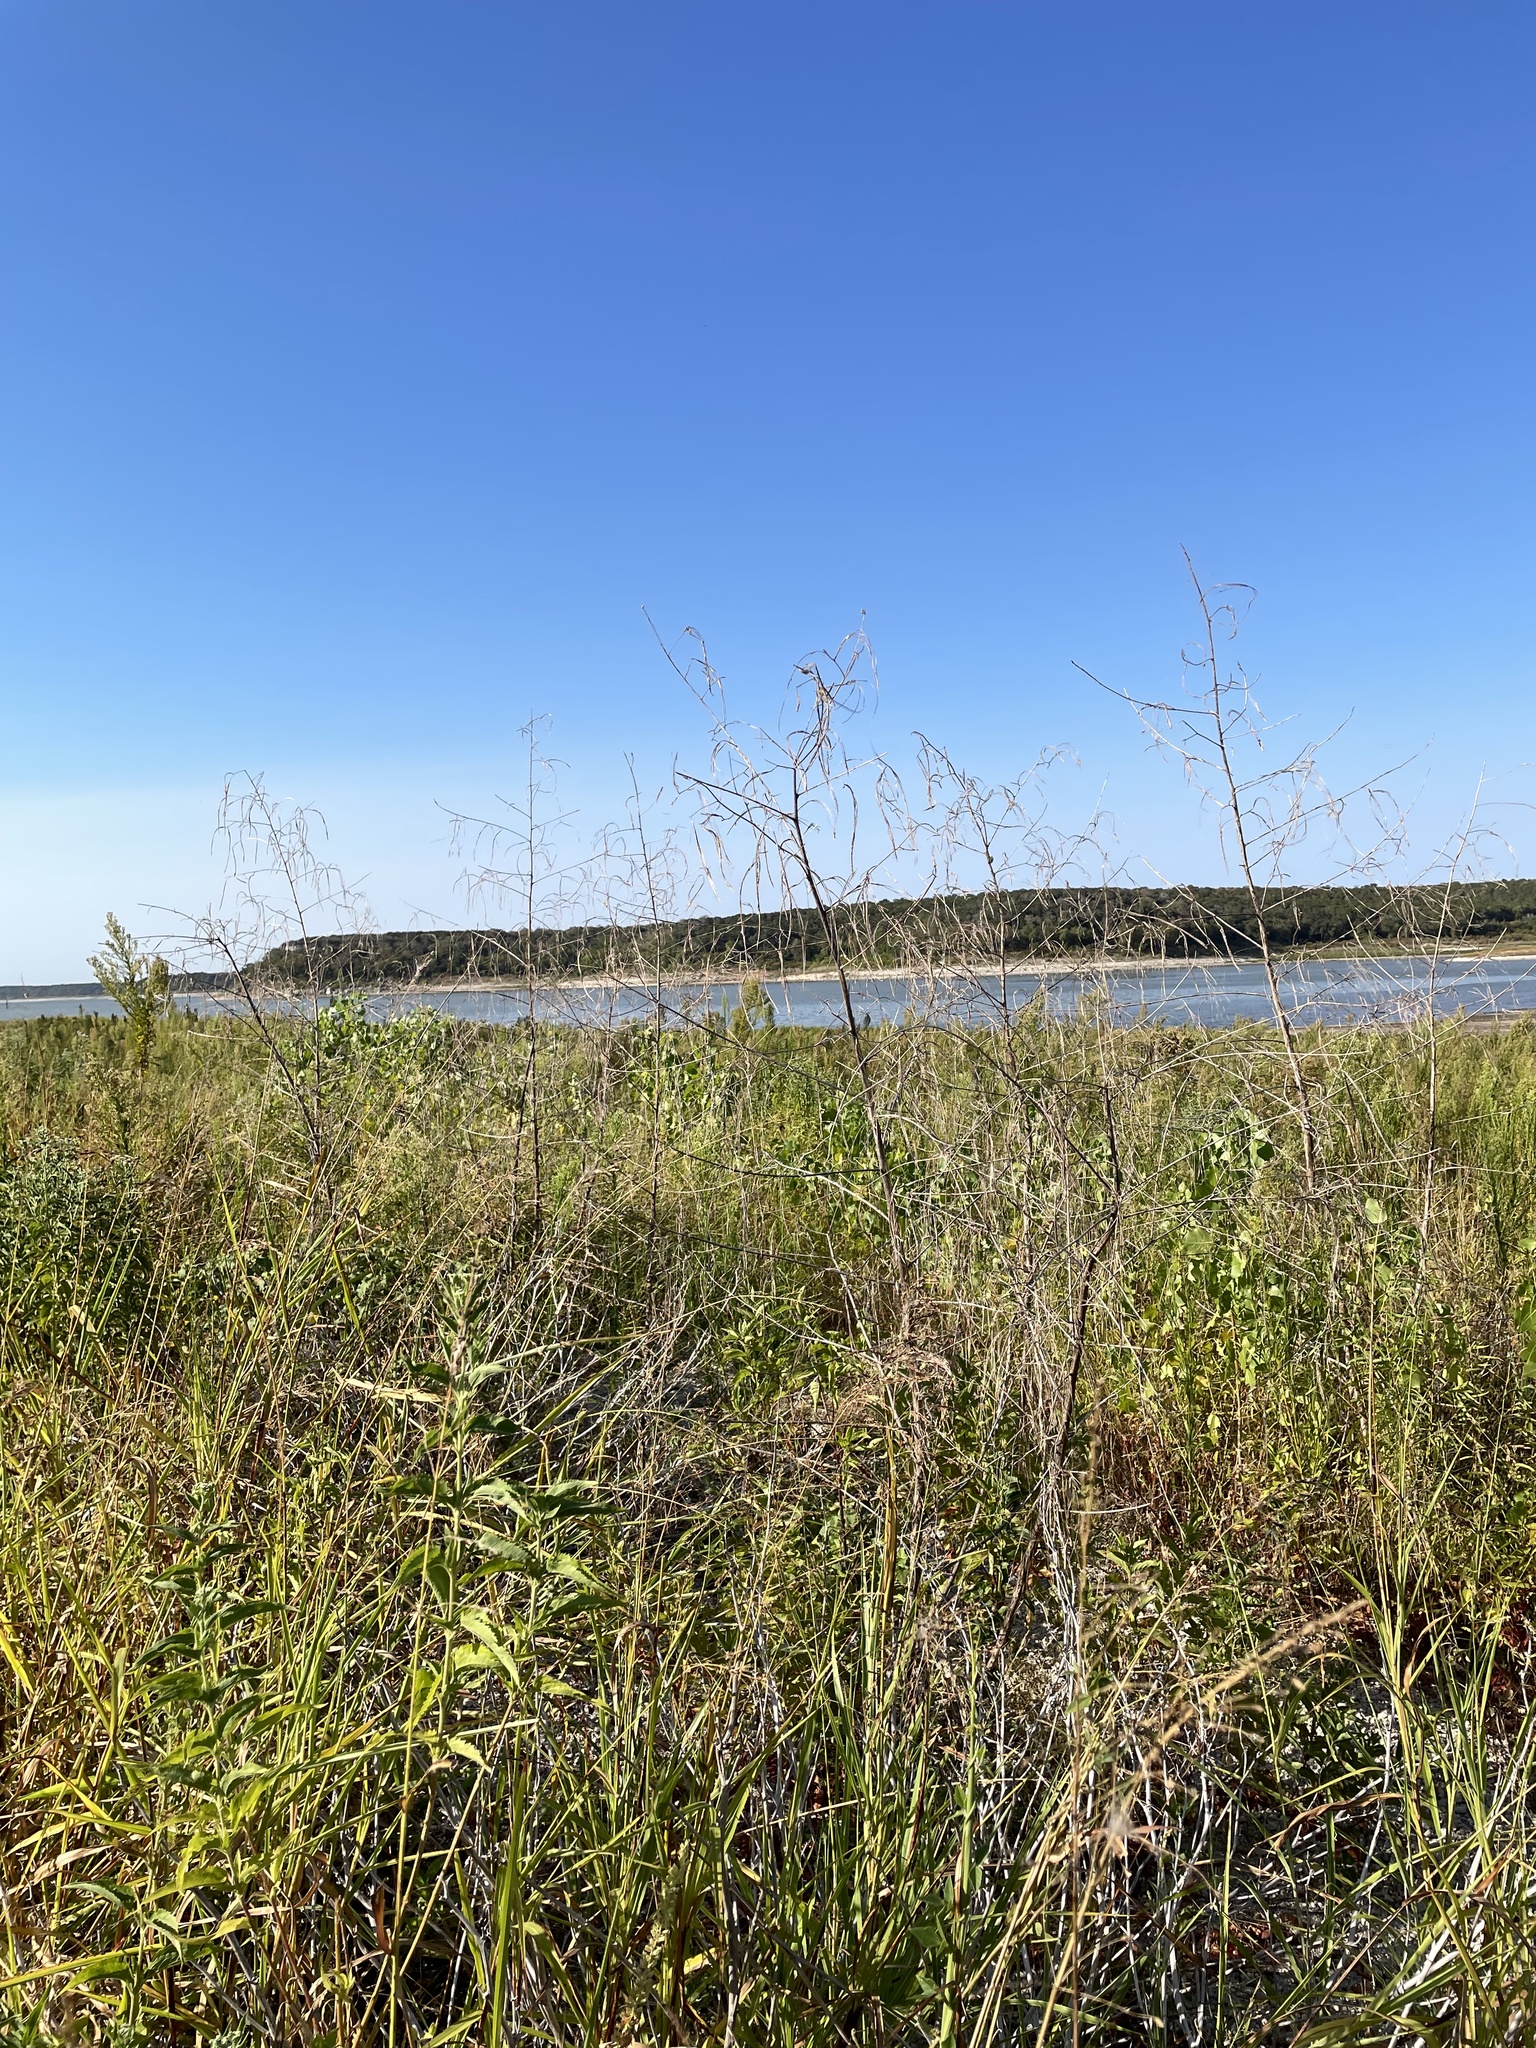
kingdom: Plantae
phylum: Tracheophyta
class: Magnoliopsida
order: Fabales
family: Fabaceae
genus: Sesbania
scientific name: Sesbania herbacea
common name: Bigpod sesbania
